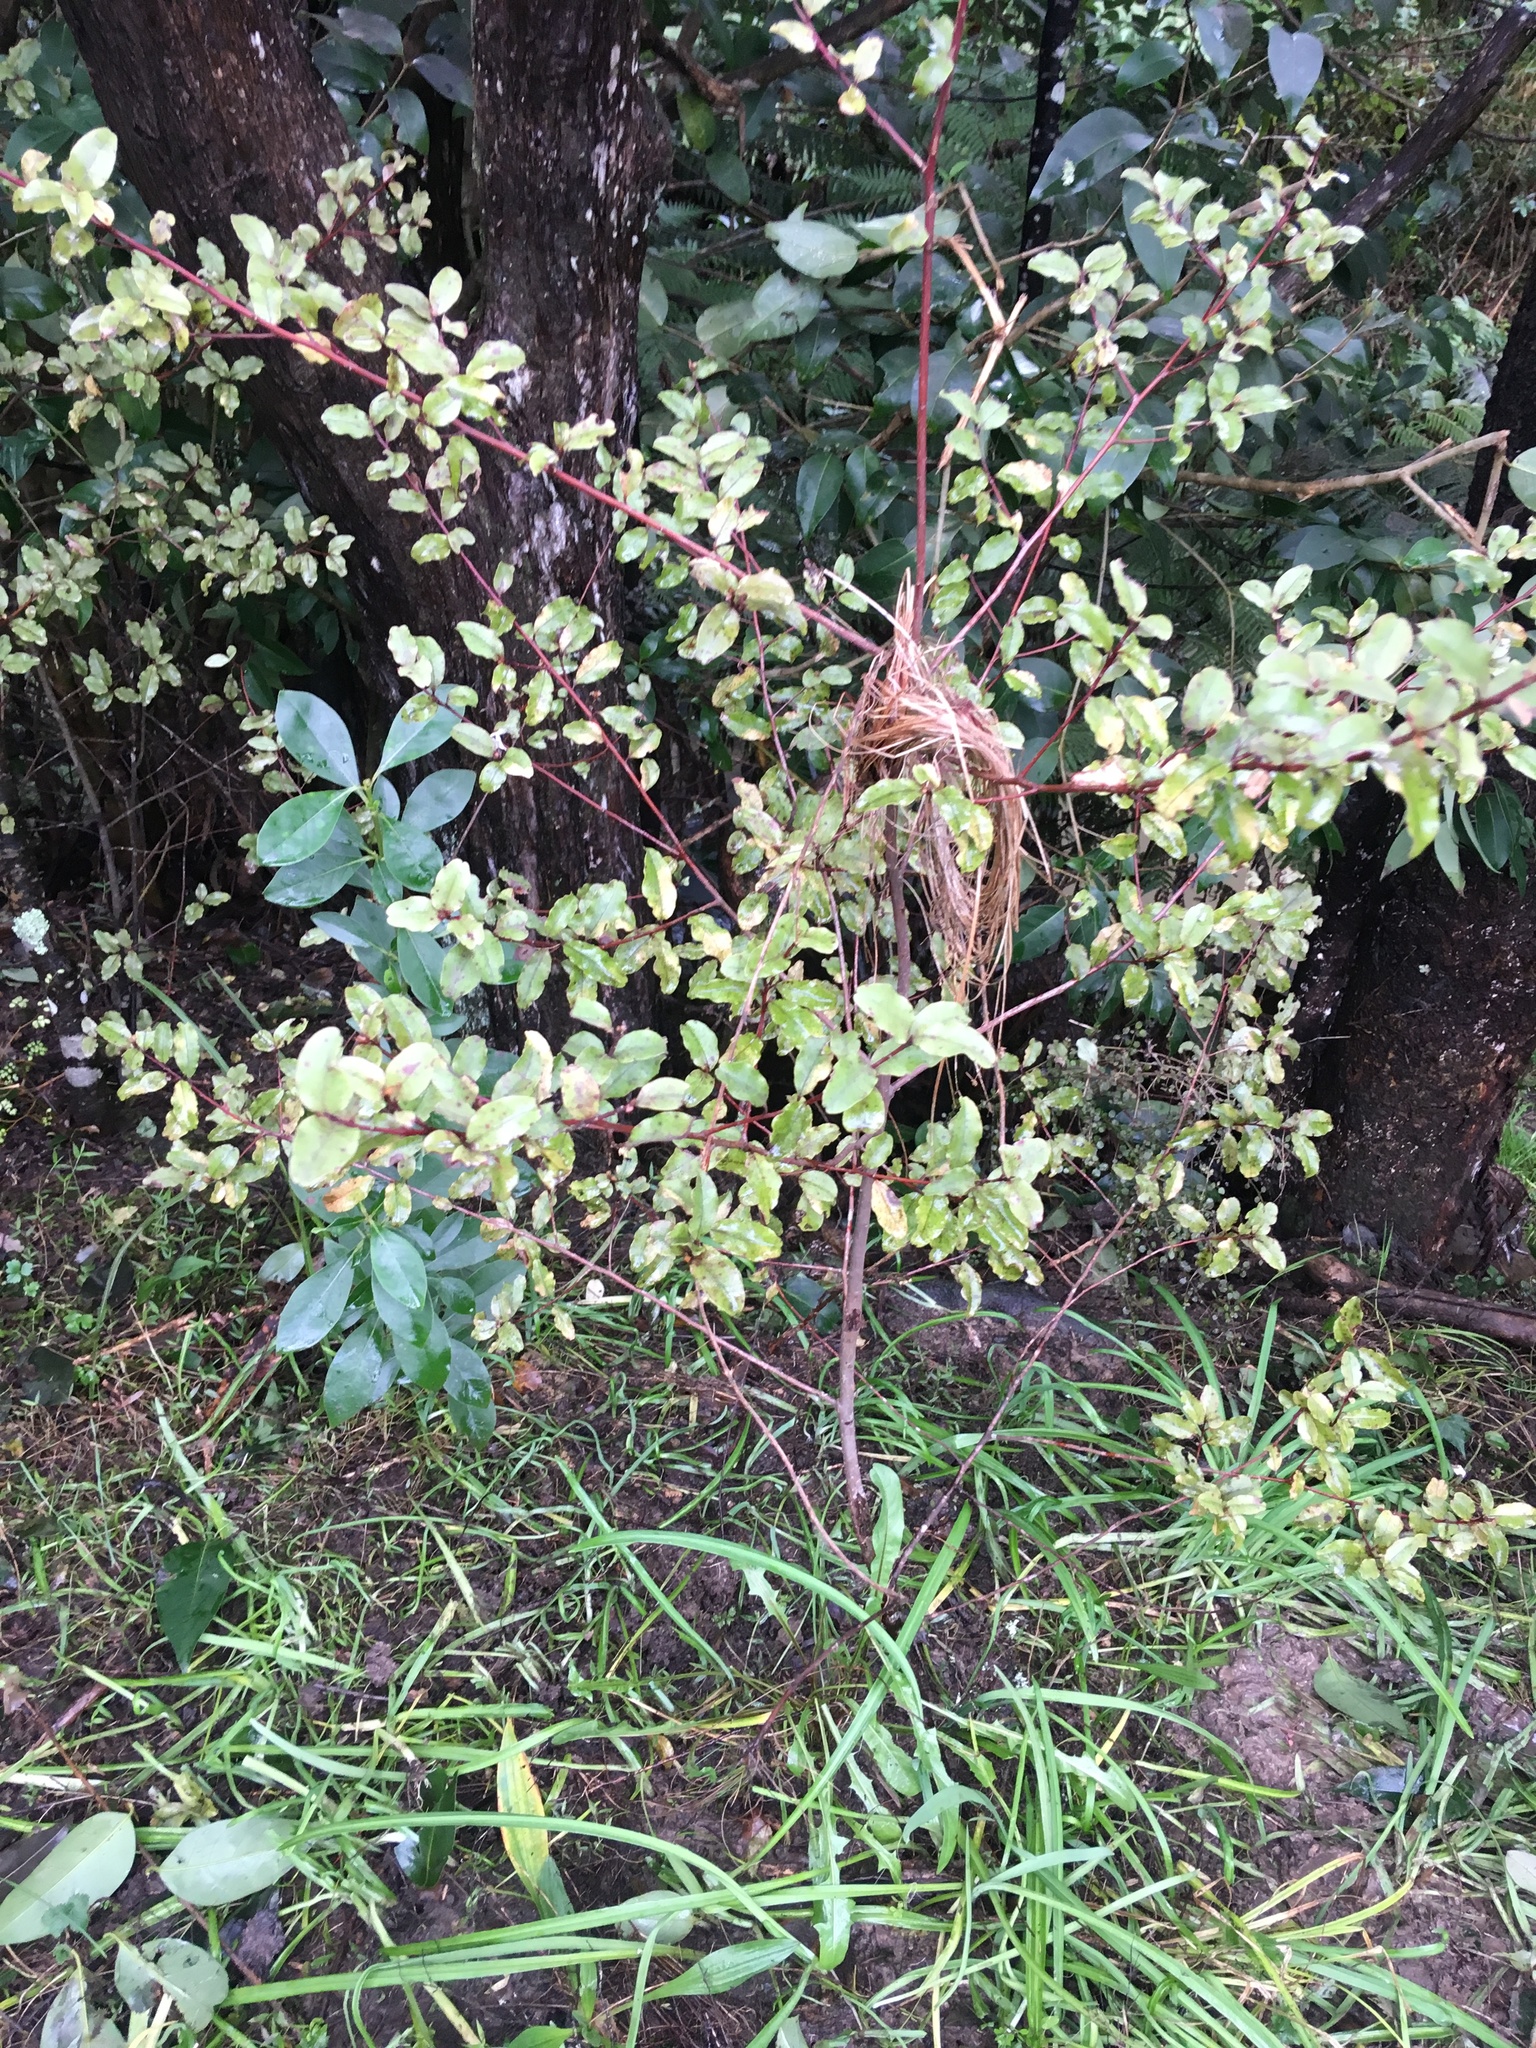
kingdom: Plantae
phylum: Tracheophyta
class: Magnoliopsida
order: Ericales
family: Primulaceae
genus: Myrsine
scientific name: Myrsine australis
